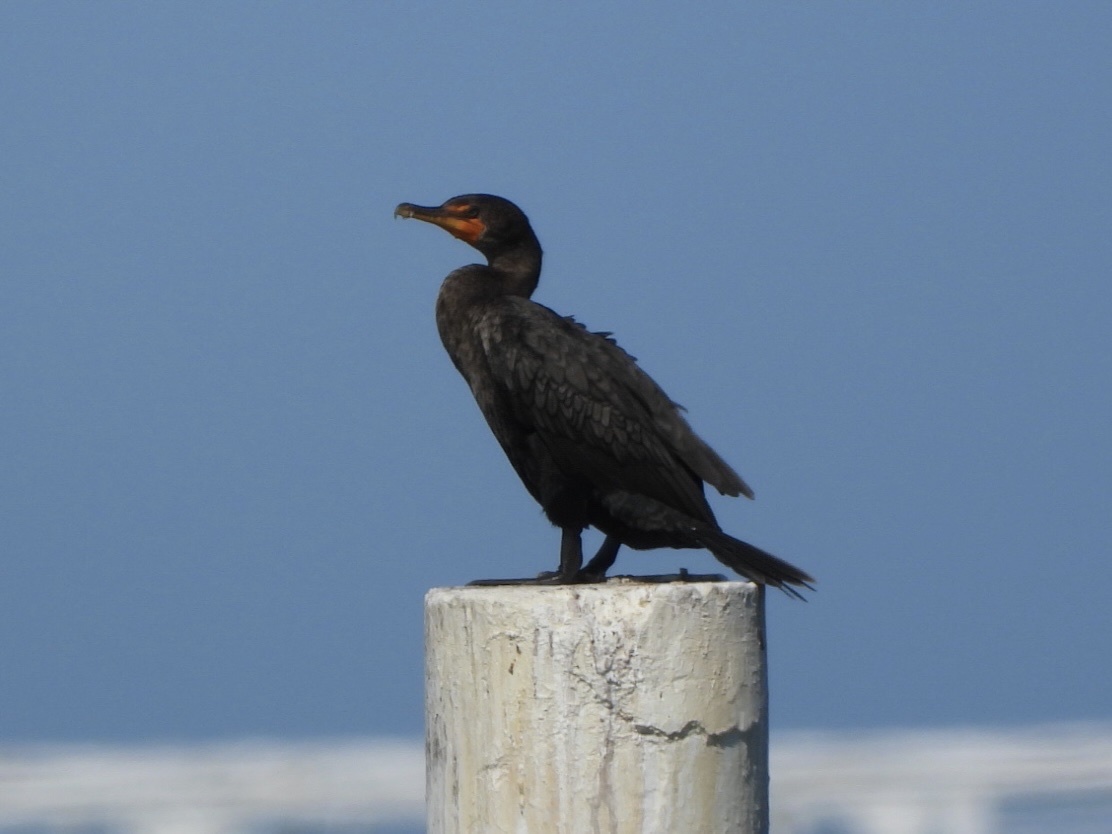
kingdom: Animalia
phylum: Chordata
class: Aves
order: Suliformes
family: Phalacrocoracidae
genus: Phalacrocorax
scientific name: Phalacrocorax auritus
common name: Double-crested cormorant
